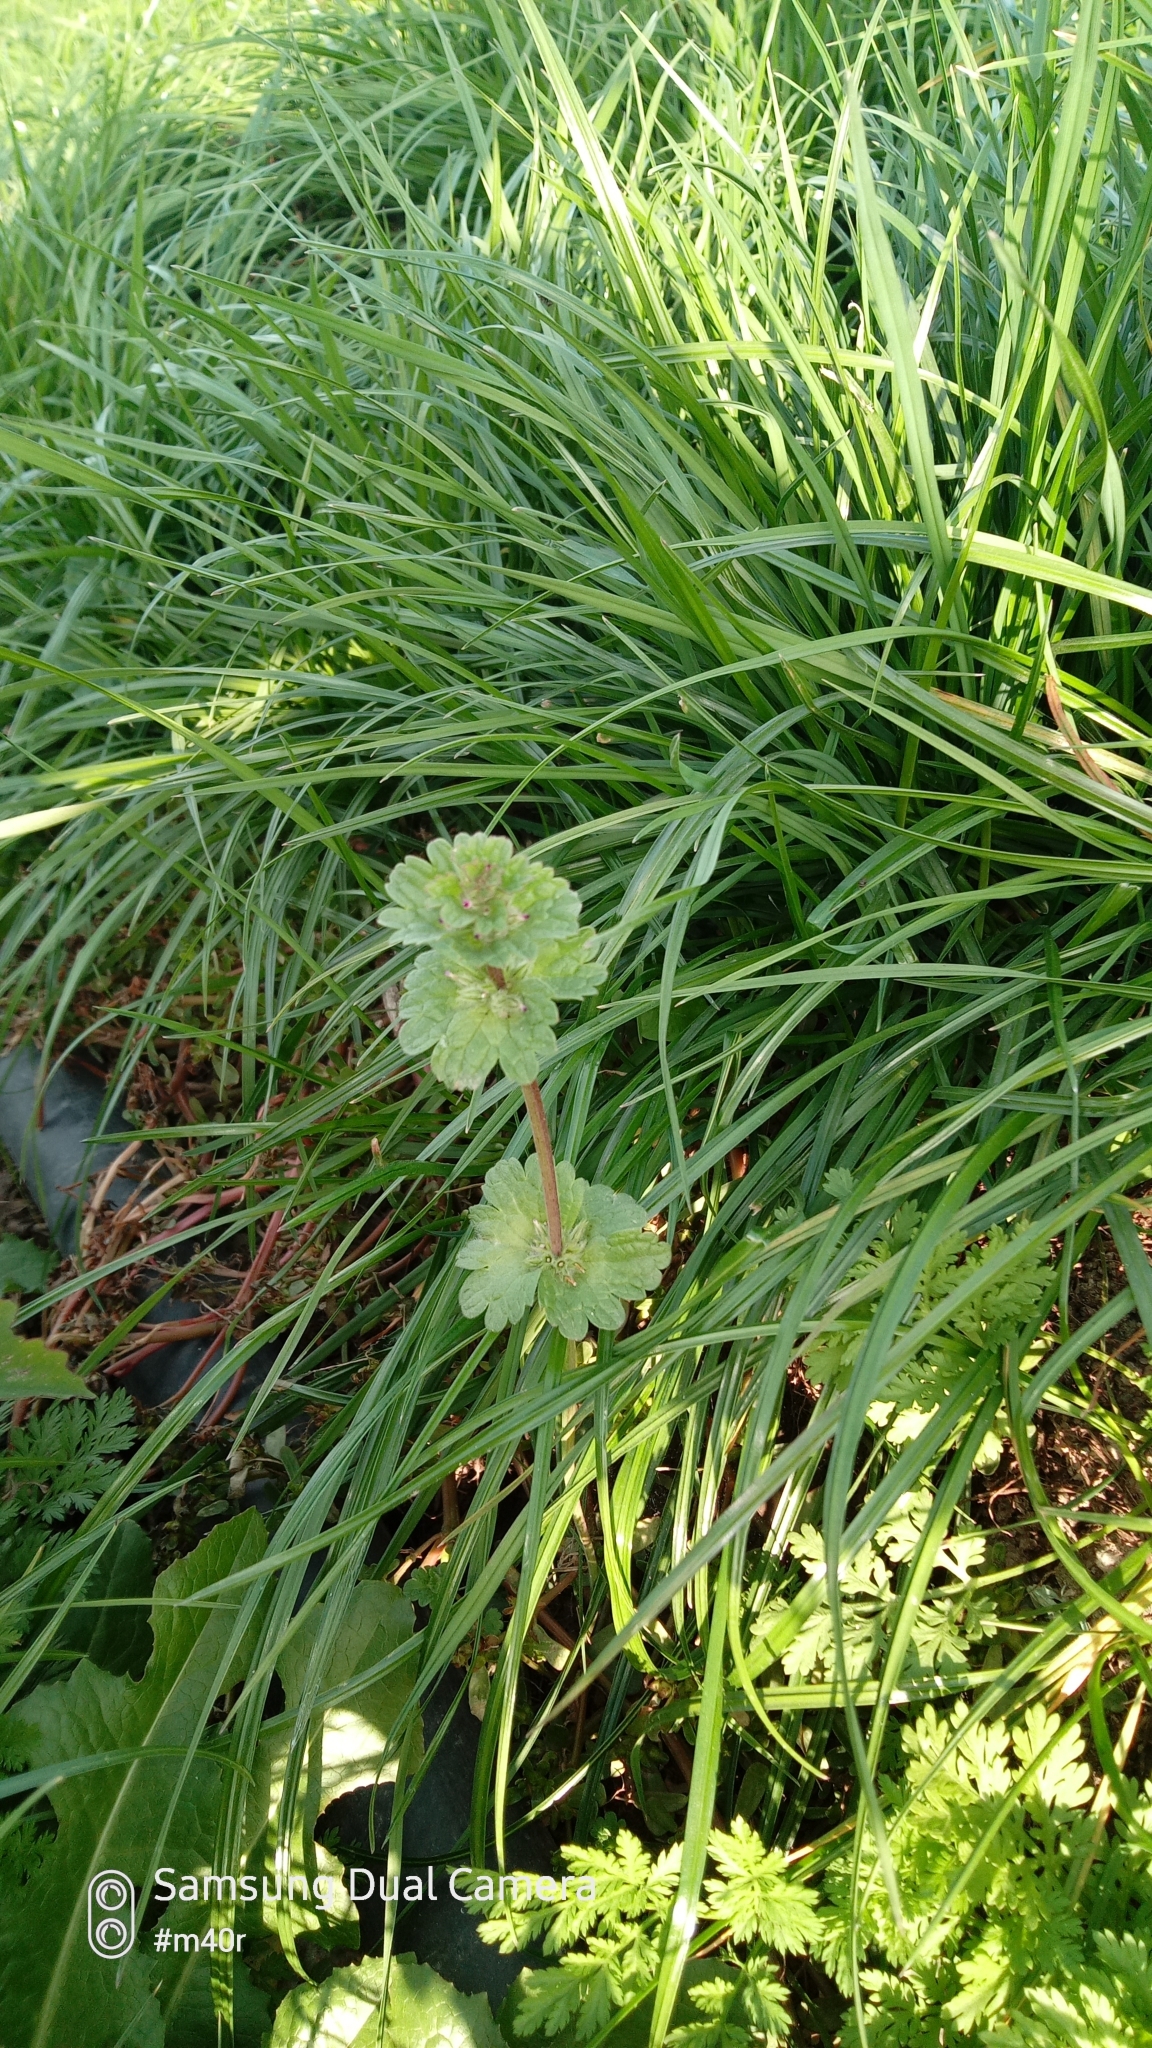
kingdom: Plantae
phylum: Tracheophyta
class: Magnoliopsida
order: Lamiales
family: Lamiaceae
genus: Lamium
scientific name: Lamium amplexicaule
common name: Henbit dead-nettle
